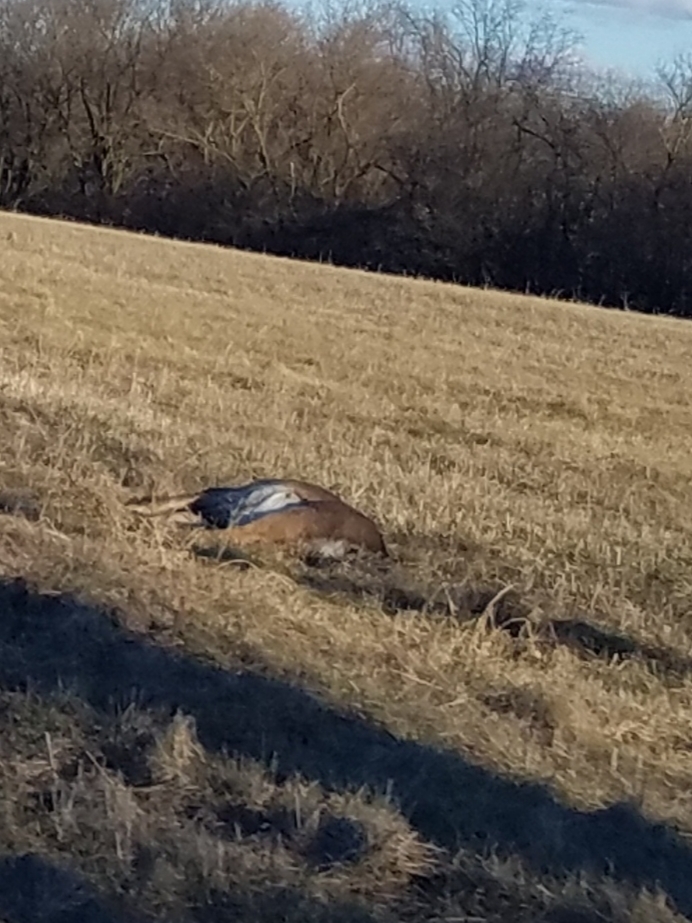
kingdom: Animalia
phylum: Chordata
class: Mammalia
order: Artiodactyla
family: Cervidae
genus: Odocoileus
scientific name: Odocoileus virginianus
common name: White-tailed deer
